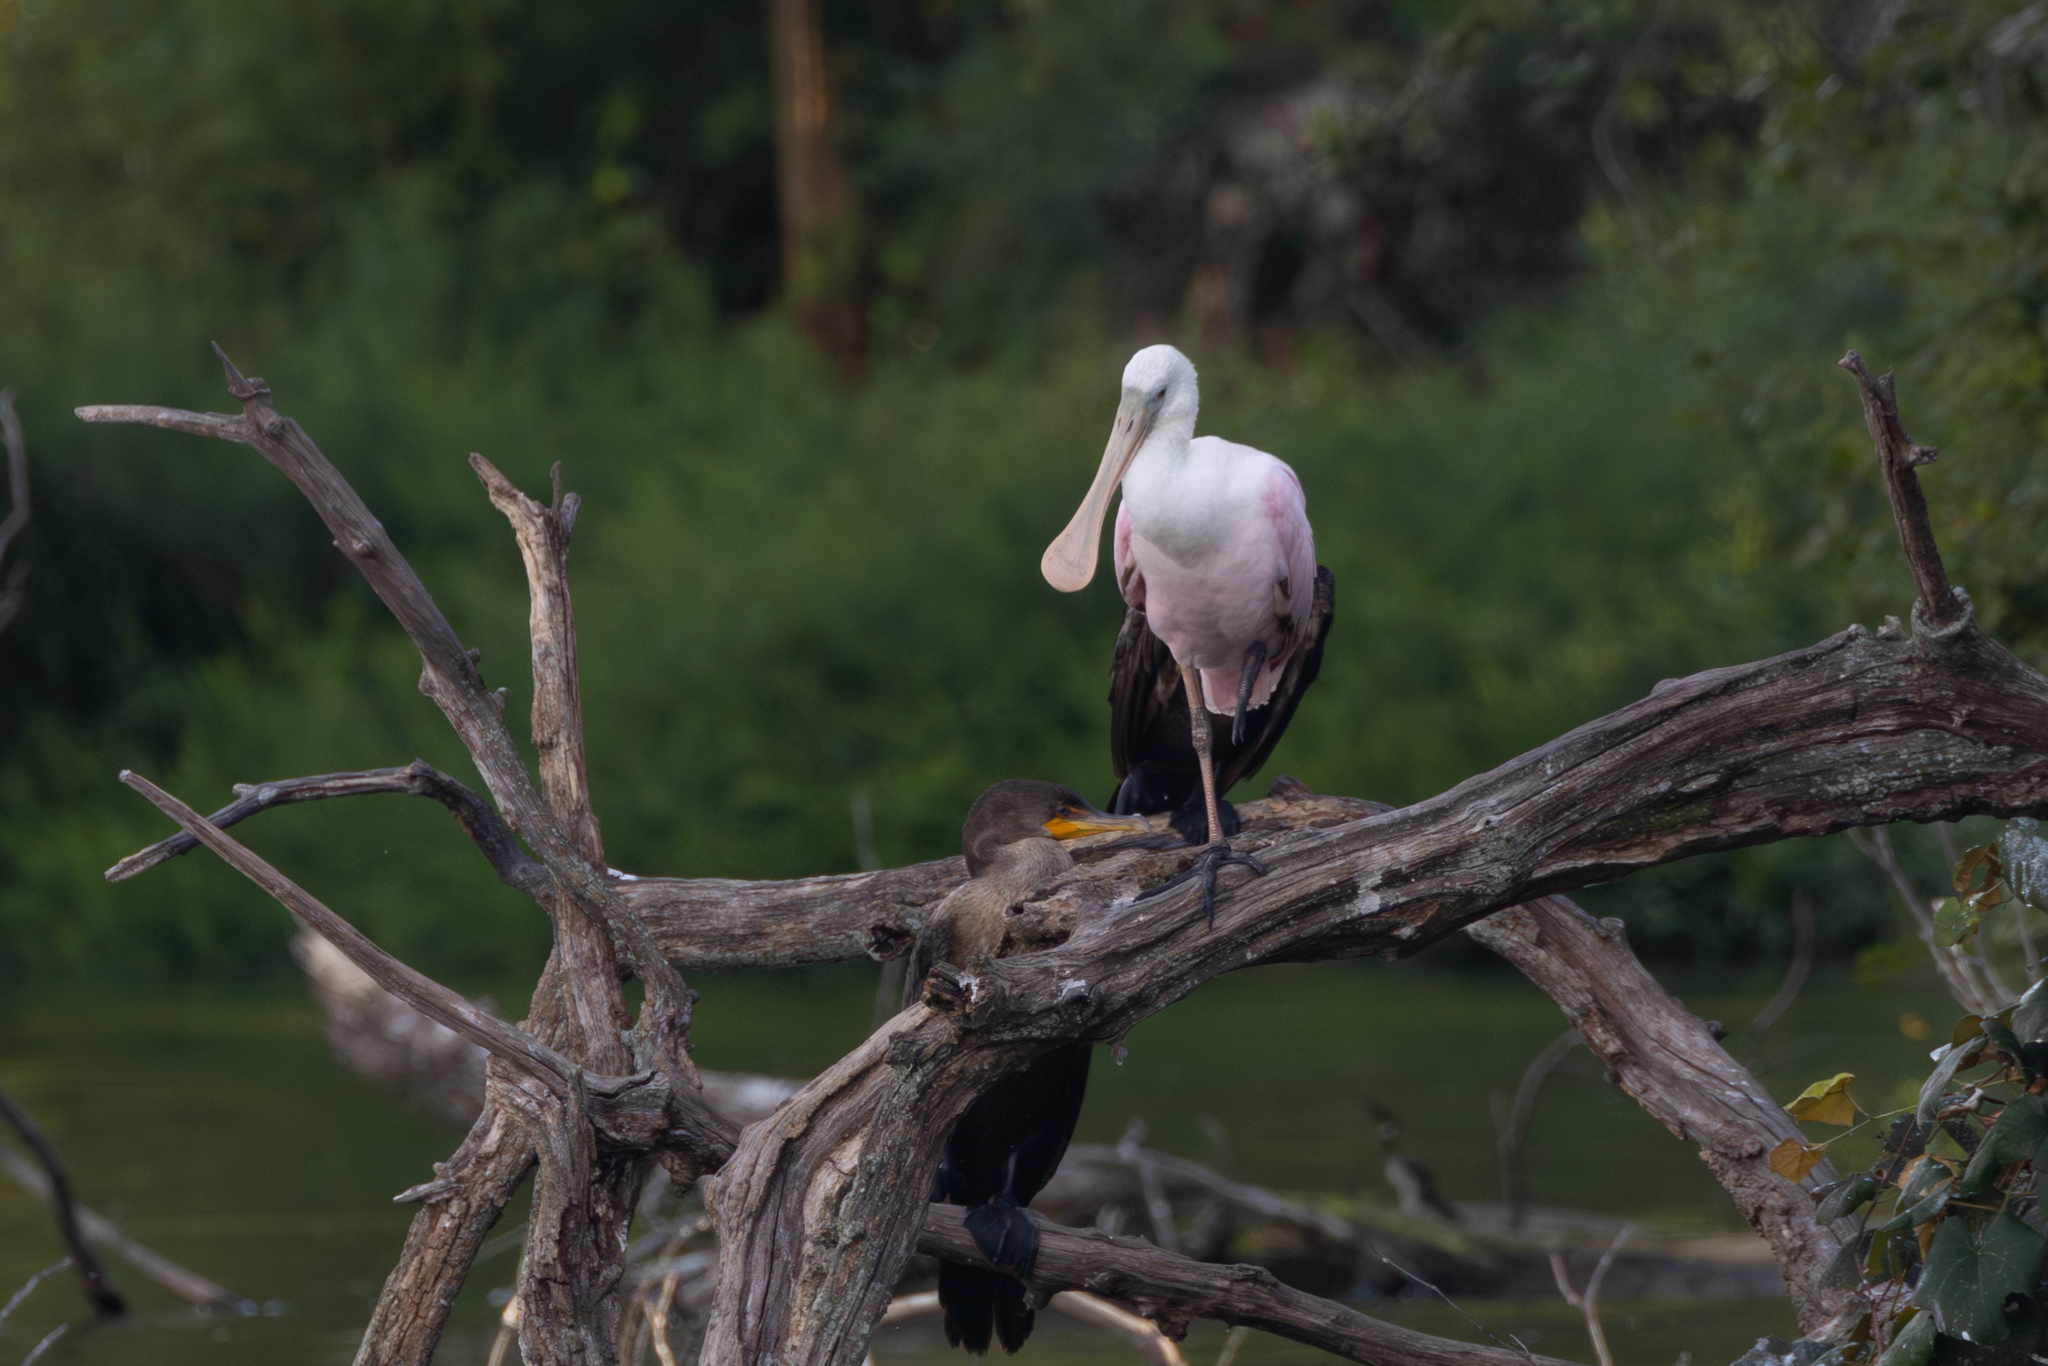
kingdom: Animalia
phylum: Chordata
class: Aves
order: Pelecaniformes
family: Threskiornithidae
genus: Platalea
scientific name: Platalea ajaja
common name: Roseate spoonbill
